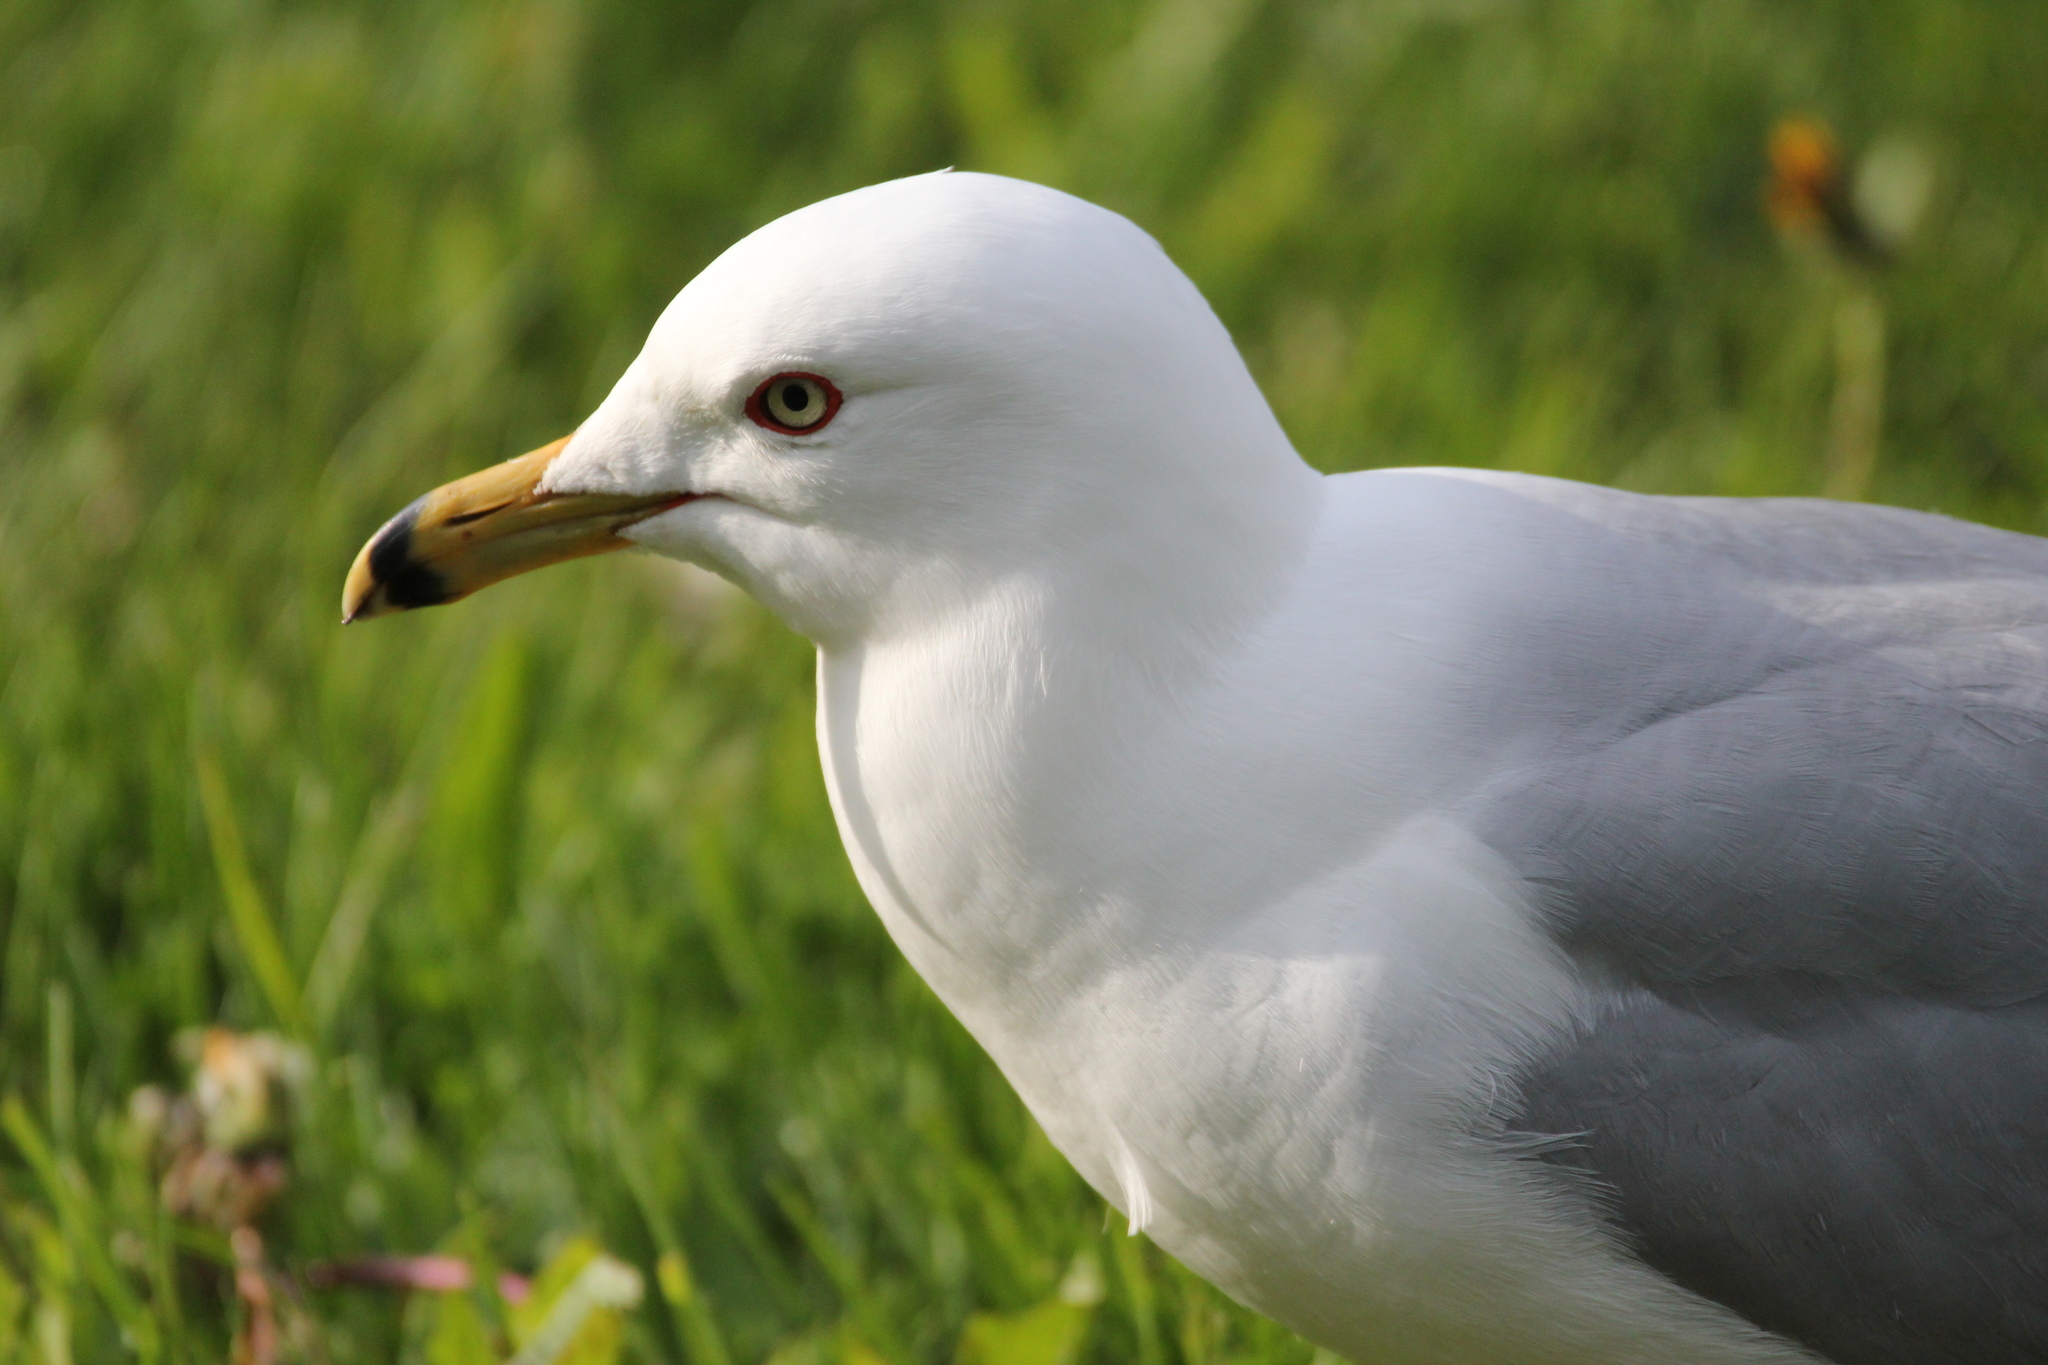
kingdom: Animalia
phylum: Chordata
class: Aves
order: Charadriiformes
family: Laridae
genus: Larus
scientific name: Larus delawarensis
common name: Ring-billed gull
